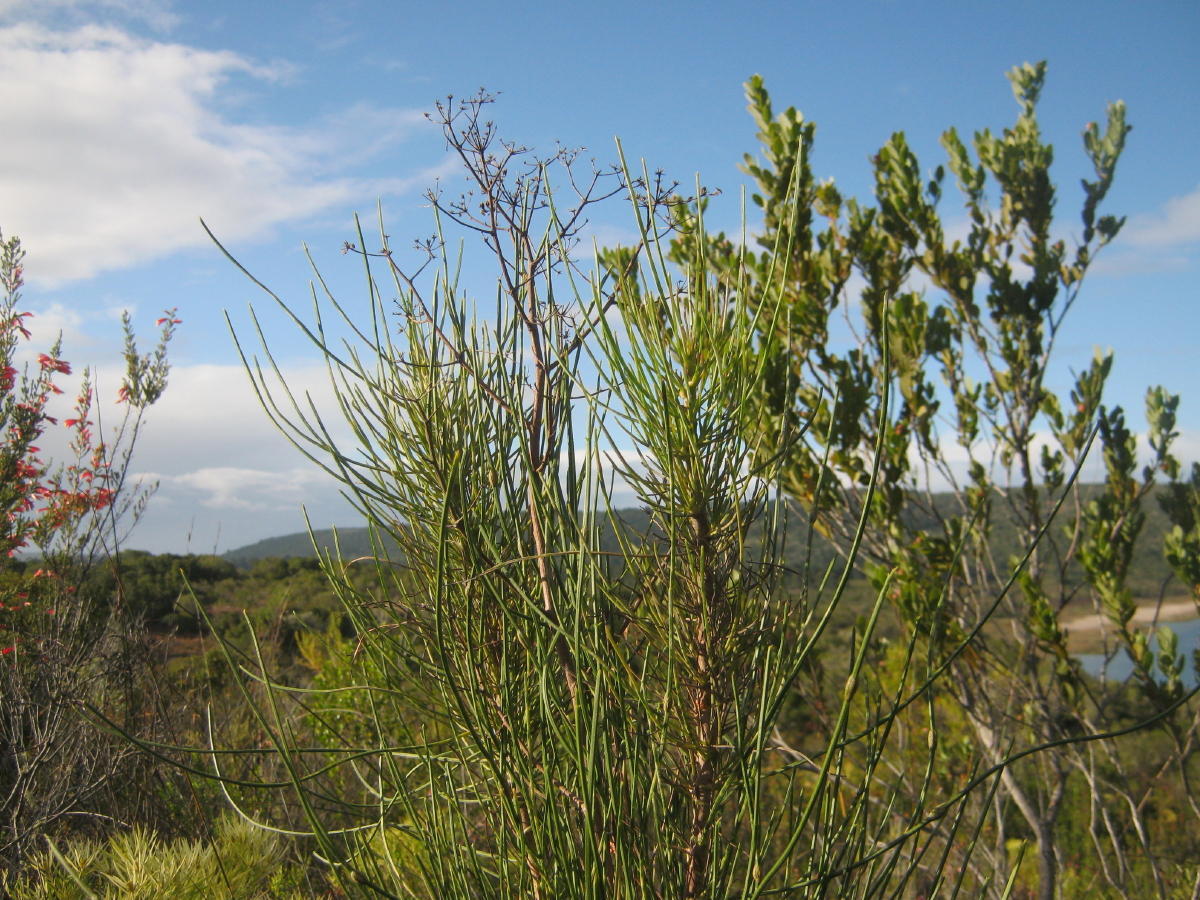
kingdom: Plantae
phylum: Tracheophyta
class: Magnoliopsida
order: Apiales
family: Apiaceae
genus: Anginon
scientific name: Anginon difforme
